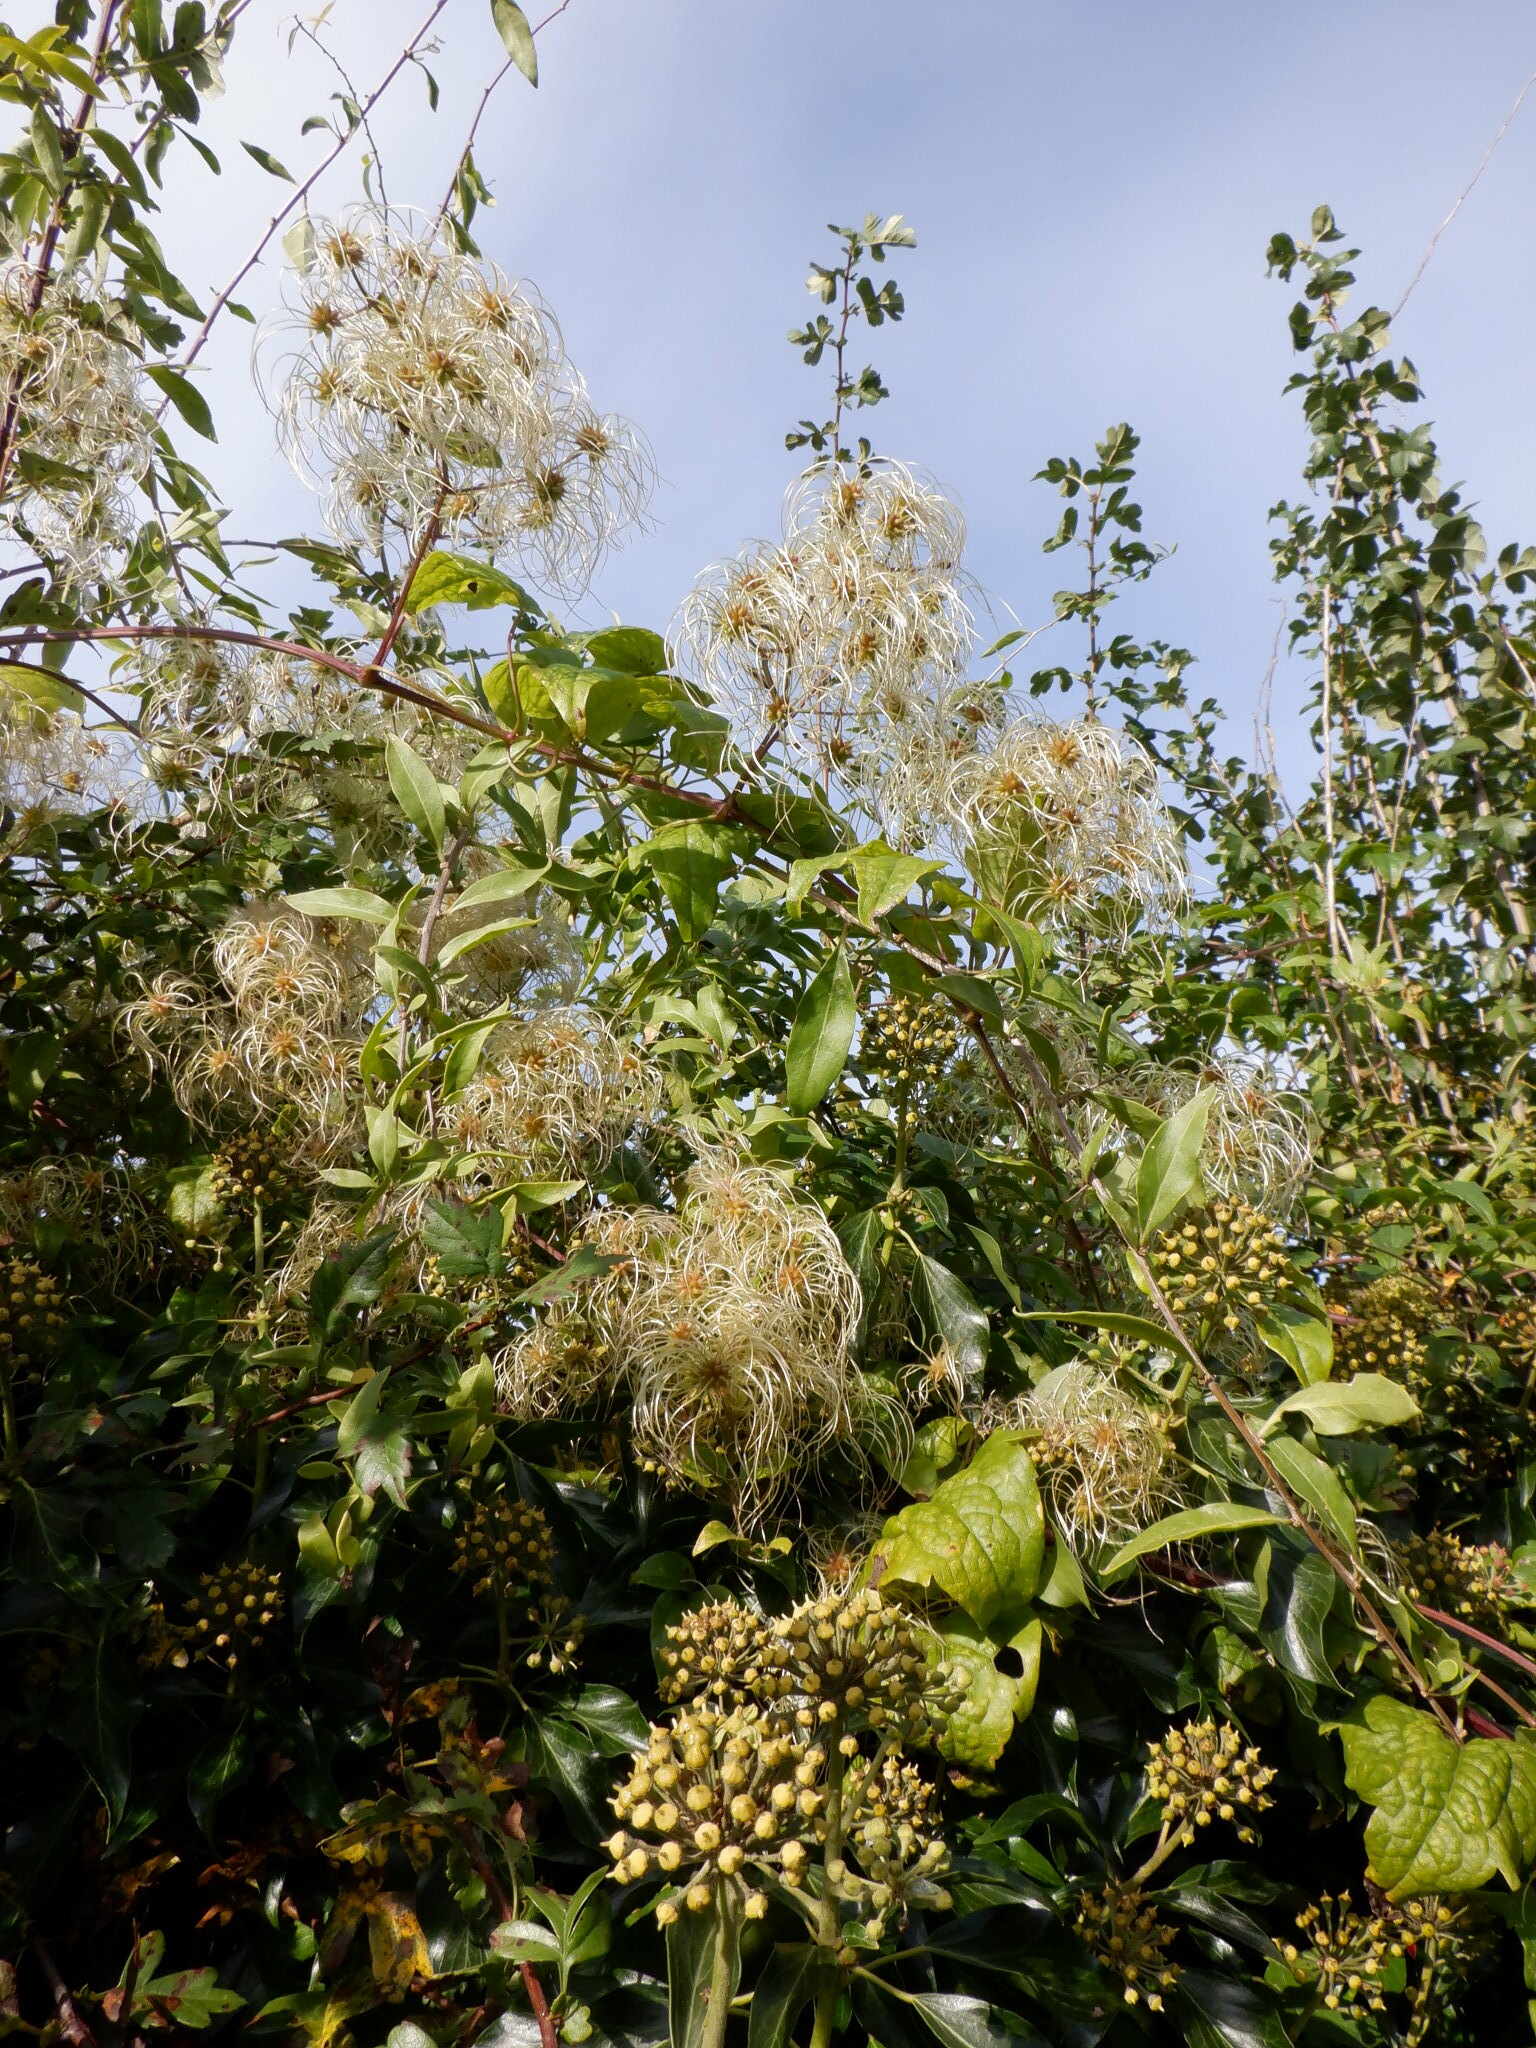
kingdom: Plantae
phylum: Tracheophyta
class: Magnoliopsida
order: Ranunculales
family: Ranunculaceae
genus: Clematis
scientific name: Clematis vitalba
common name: Evergreen clematis
